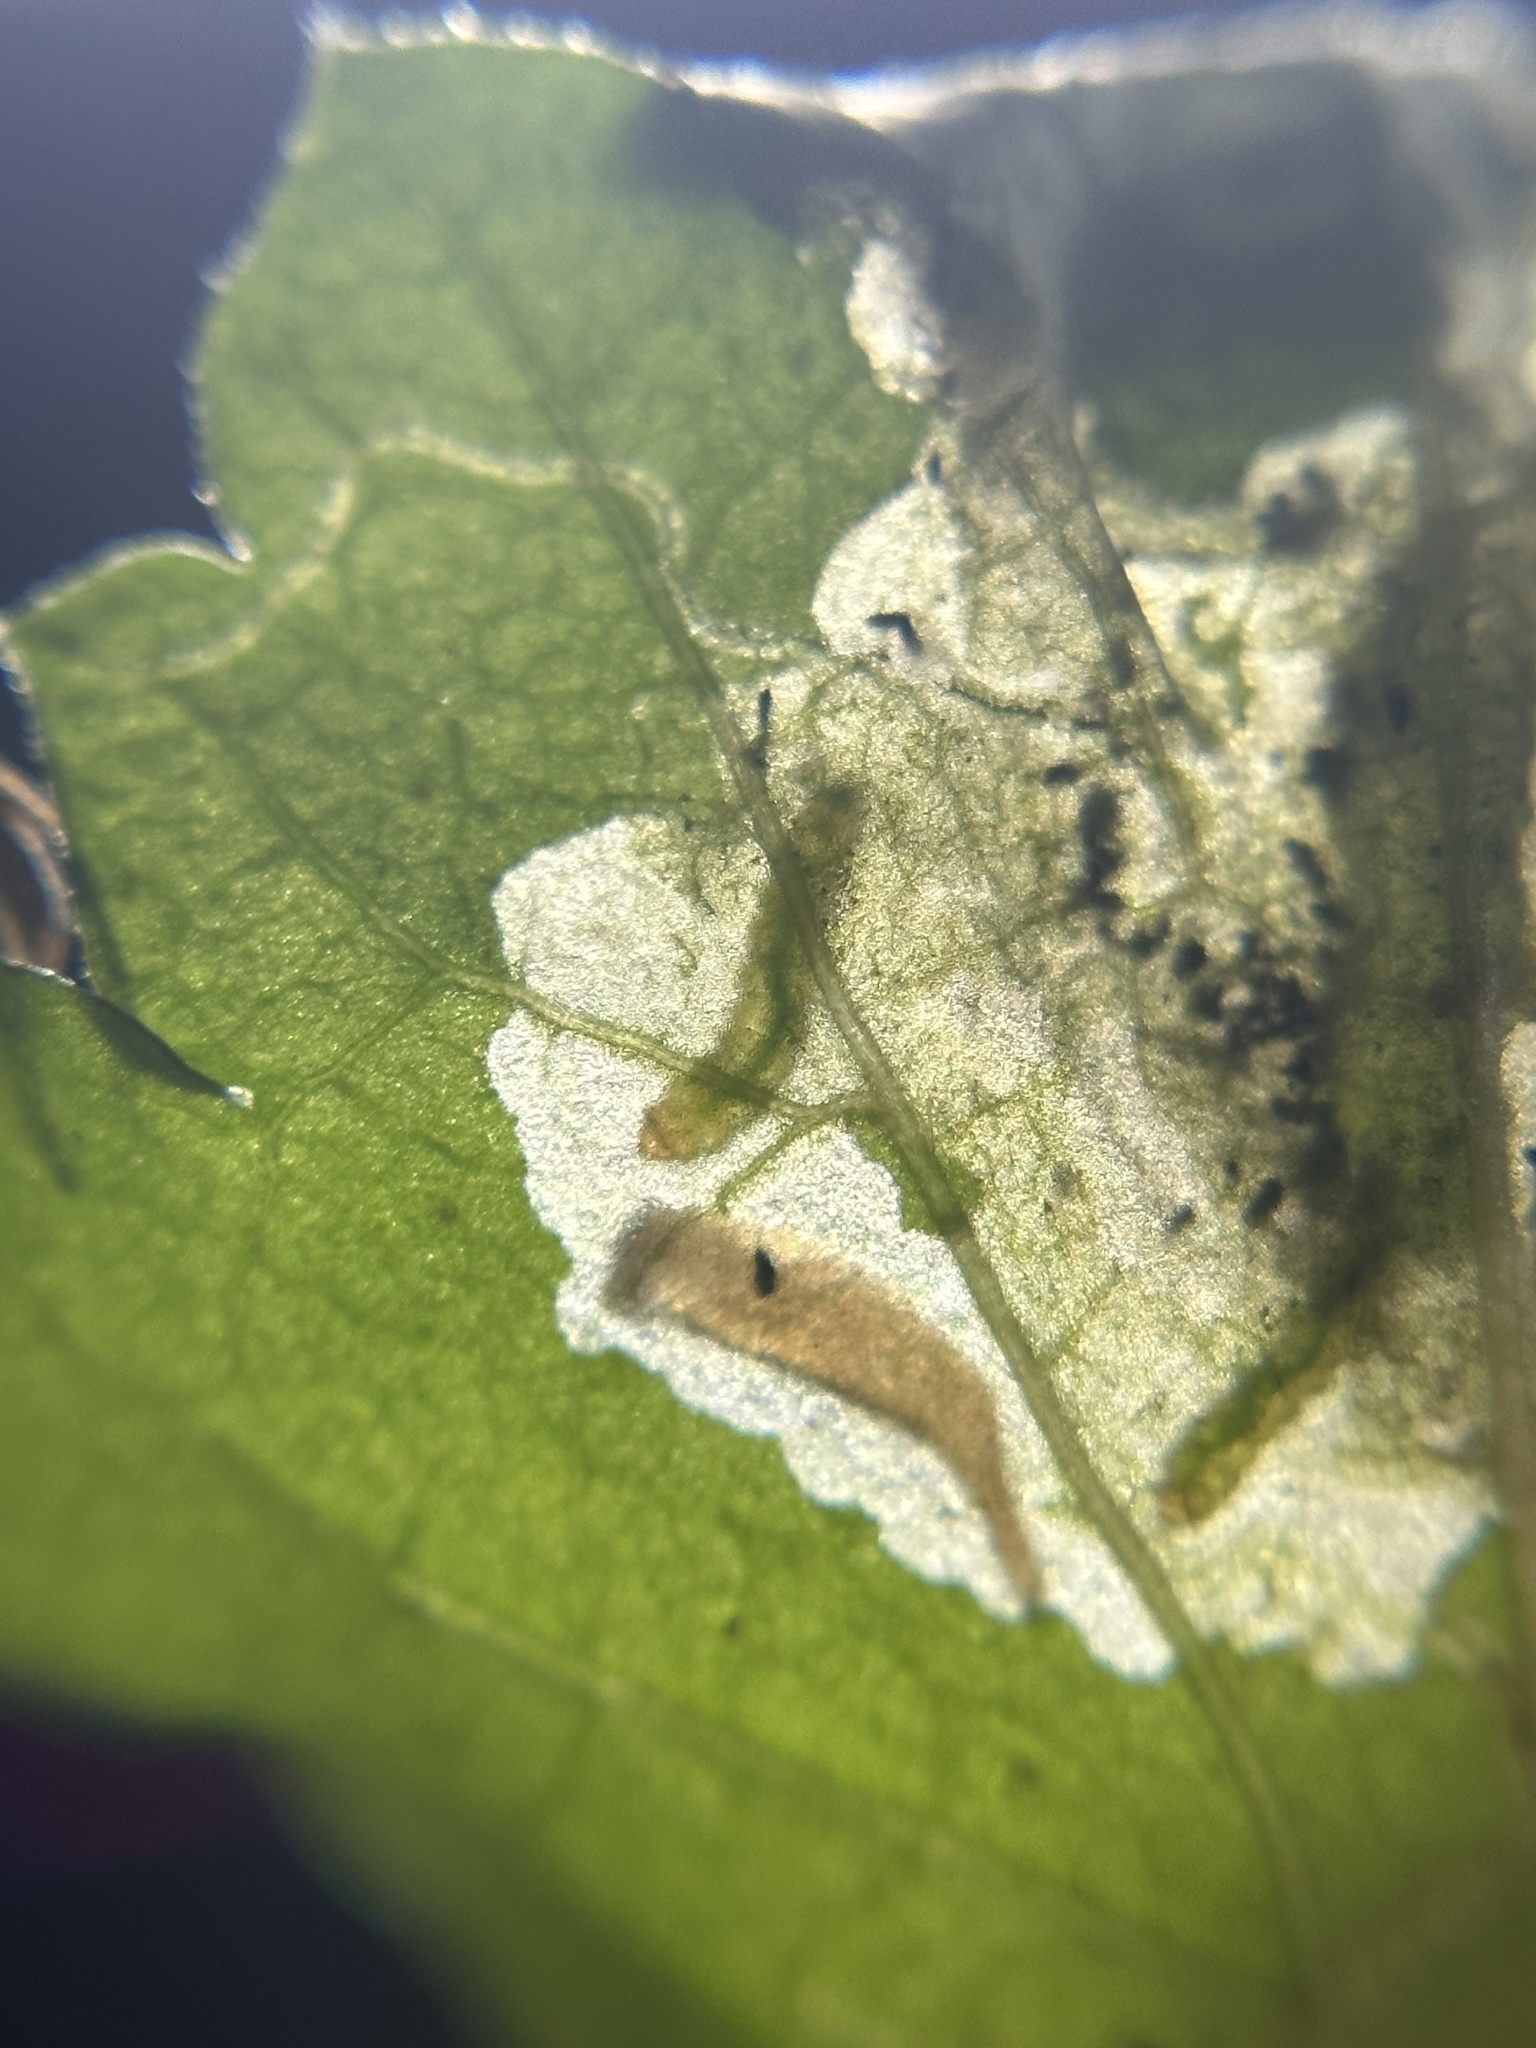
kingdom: Plantae
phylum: Rhodophyta
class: Florideophyceae
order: Gracilariales
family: Gracilariaceae
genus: Gracilaria
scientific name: Gracilaria
